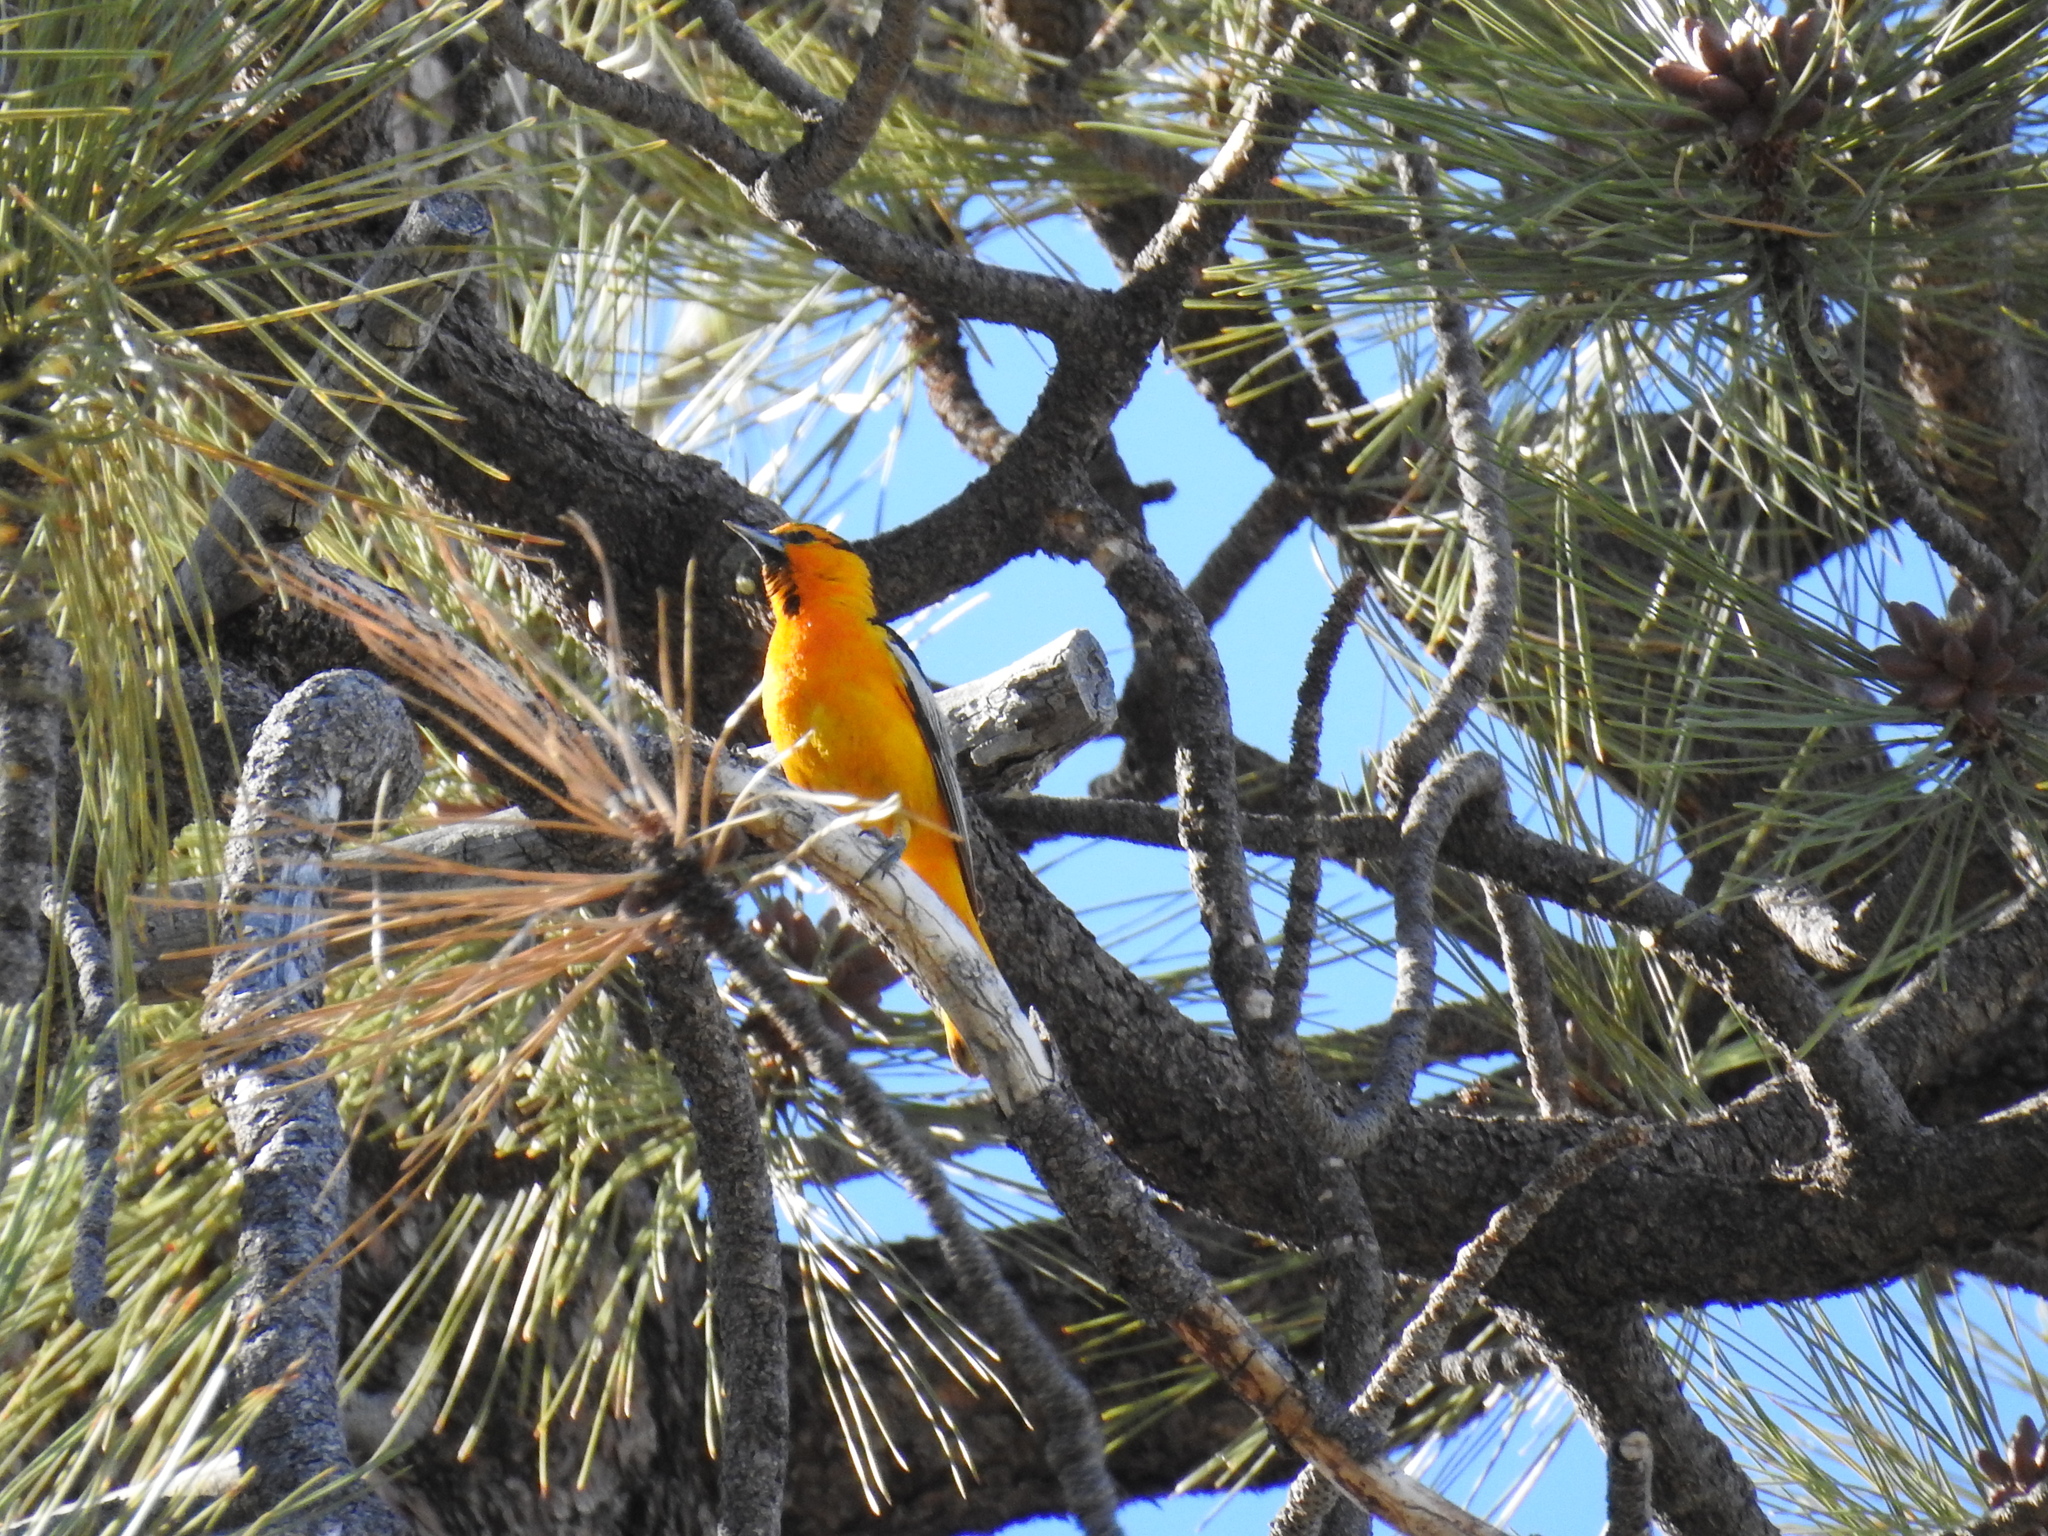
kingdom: Animalia
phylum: Chordata
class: Aves
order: Passeriformes
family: Icteridae
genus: Icterus
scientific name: Icterus bullockii
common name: Bullock's oriole
